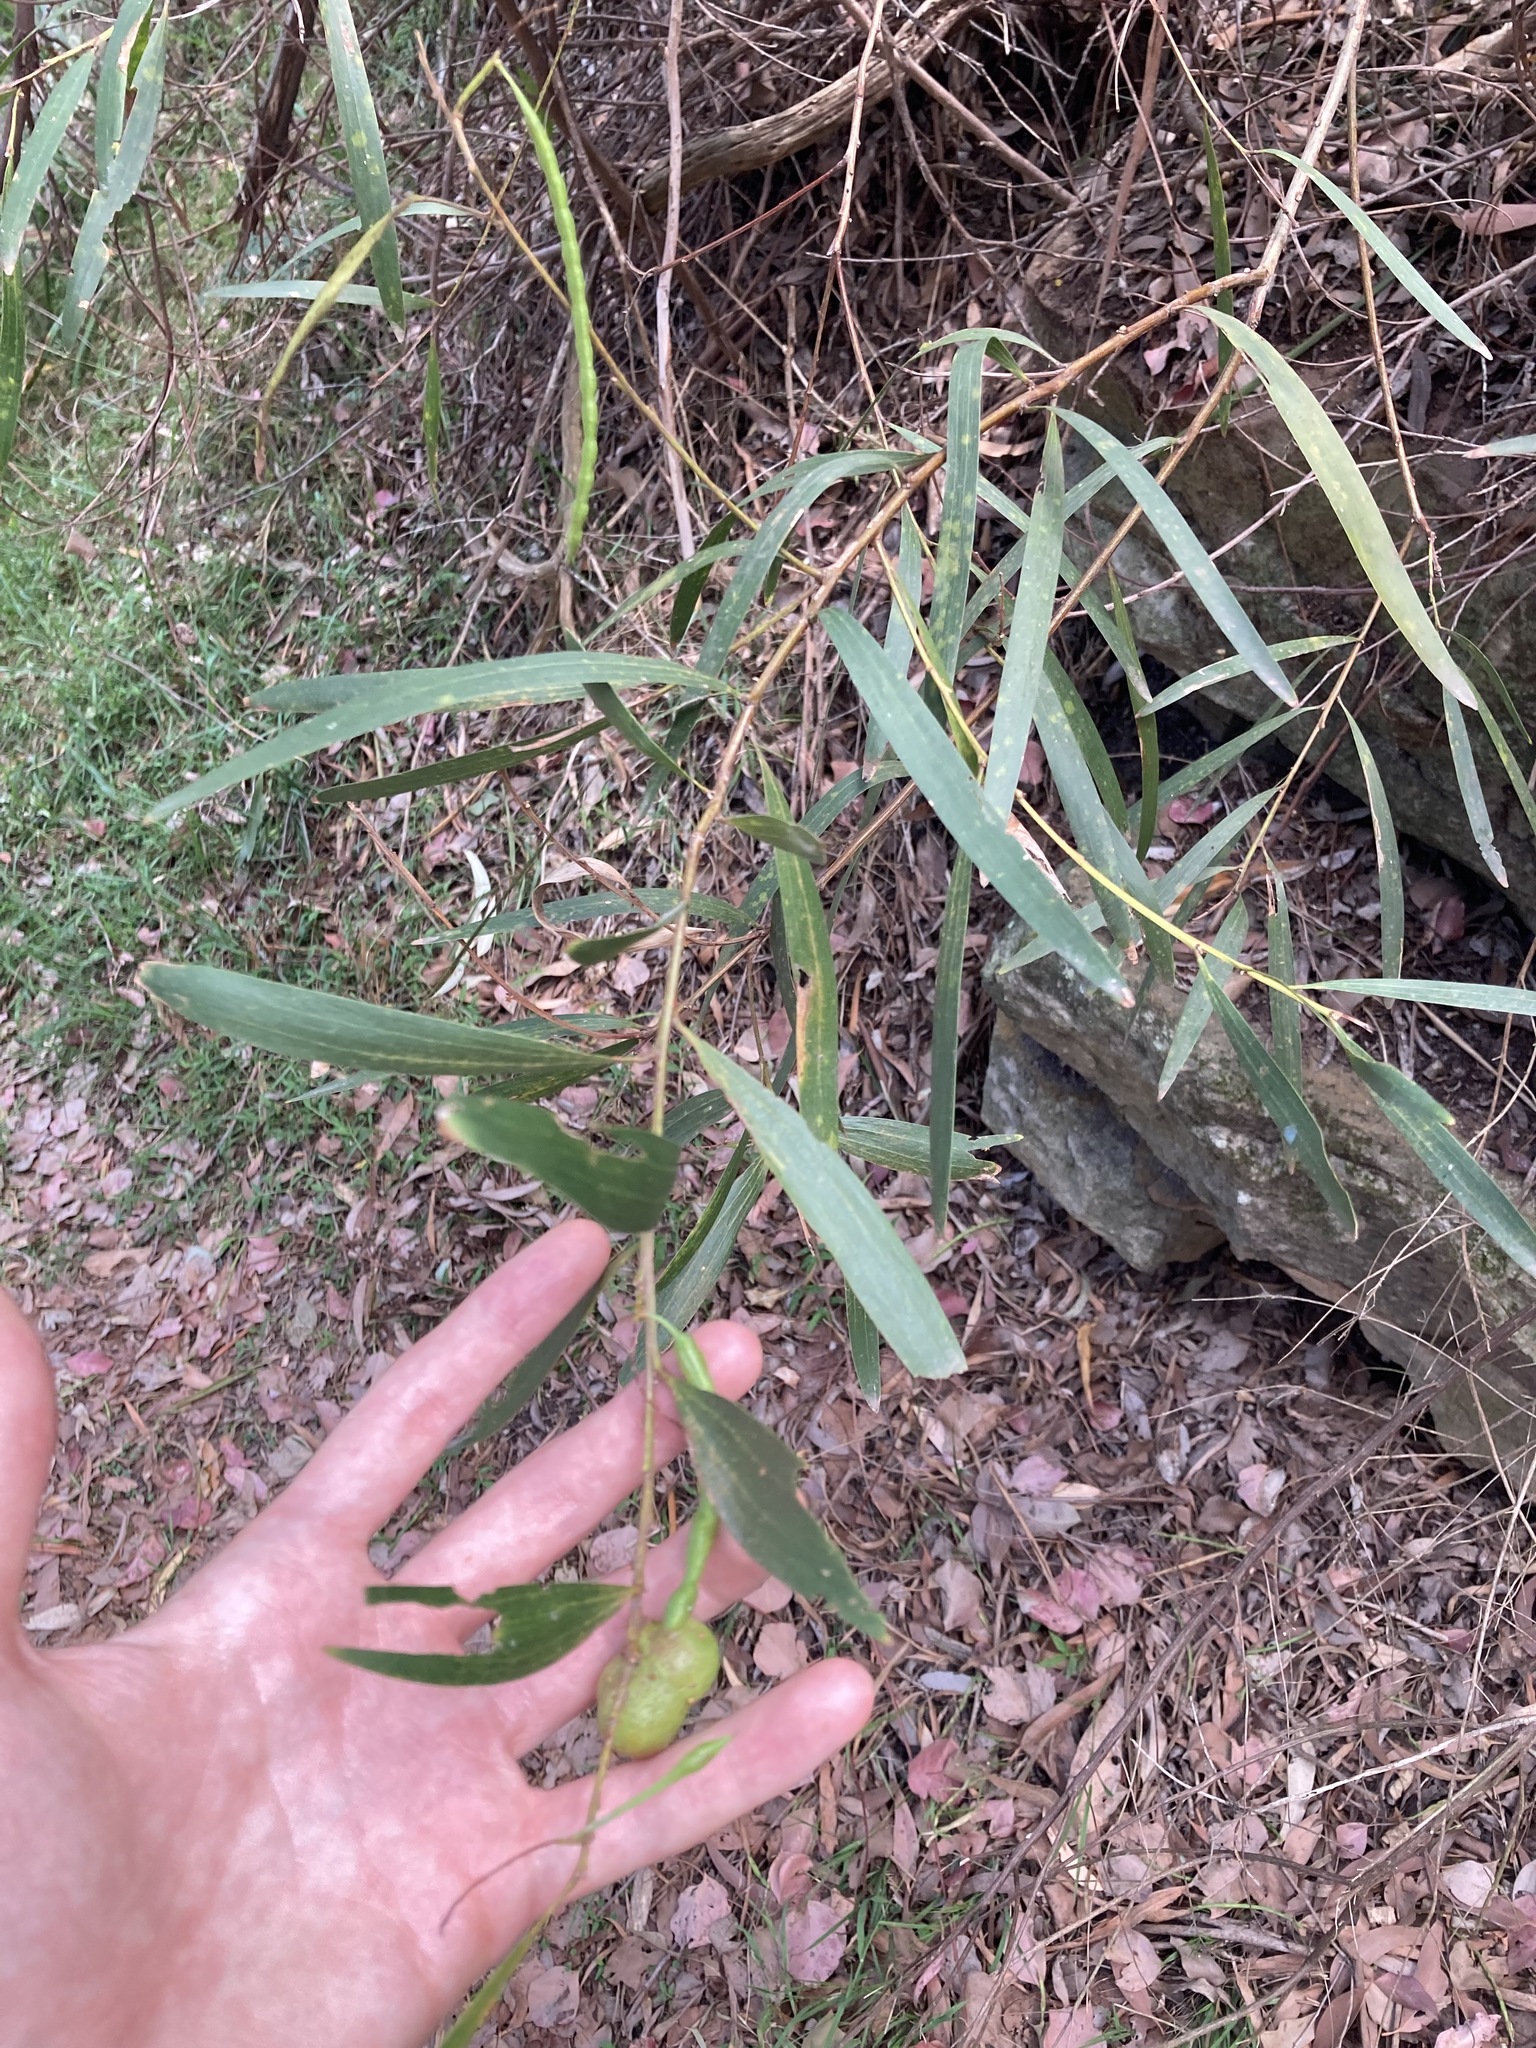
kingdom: Animalia
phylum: Arthropoda
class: Insecta
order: Hymenoptera
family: Pteromalidae
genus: Trichilogaster
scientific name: Trichilogaster acaciaelongifoliae
